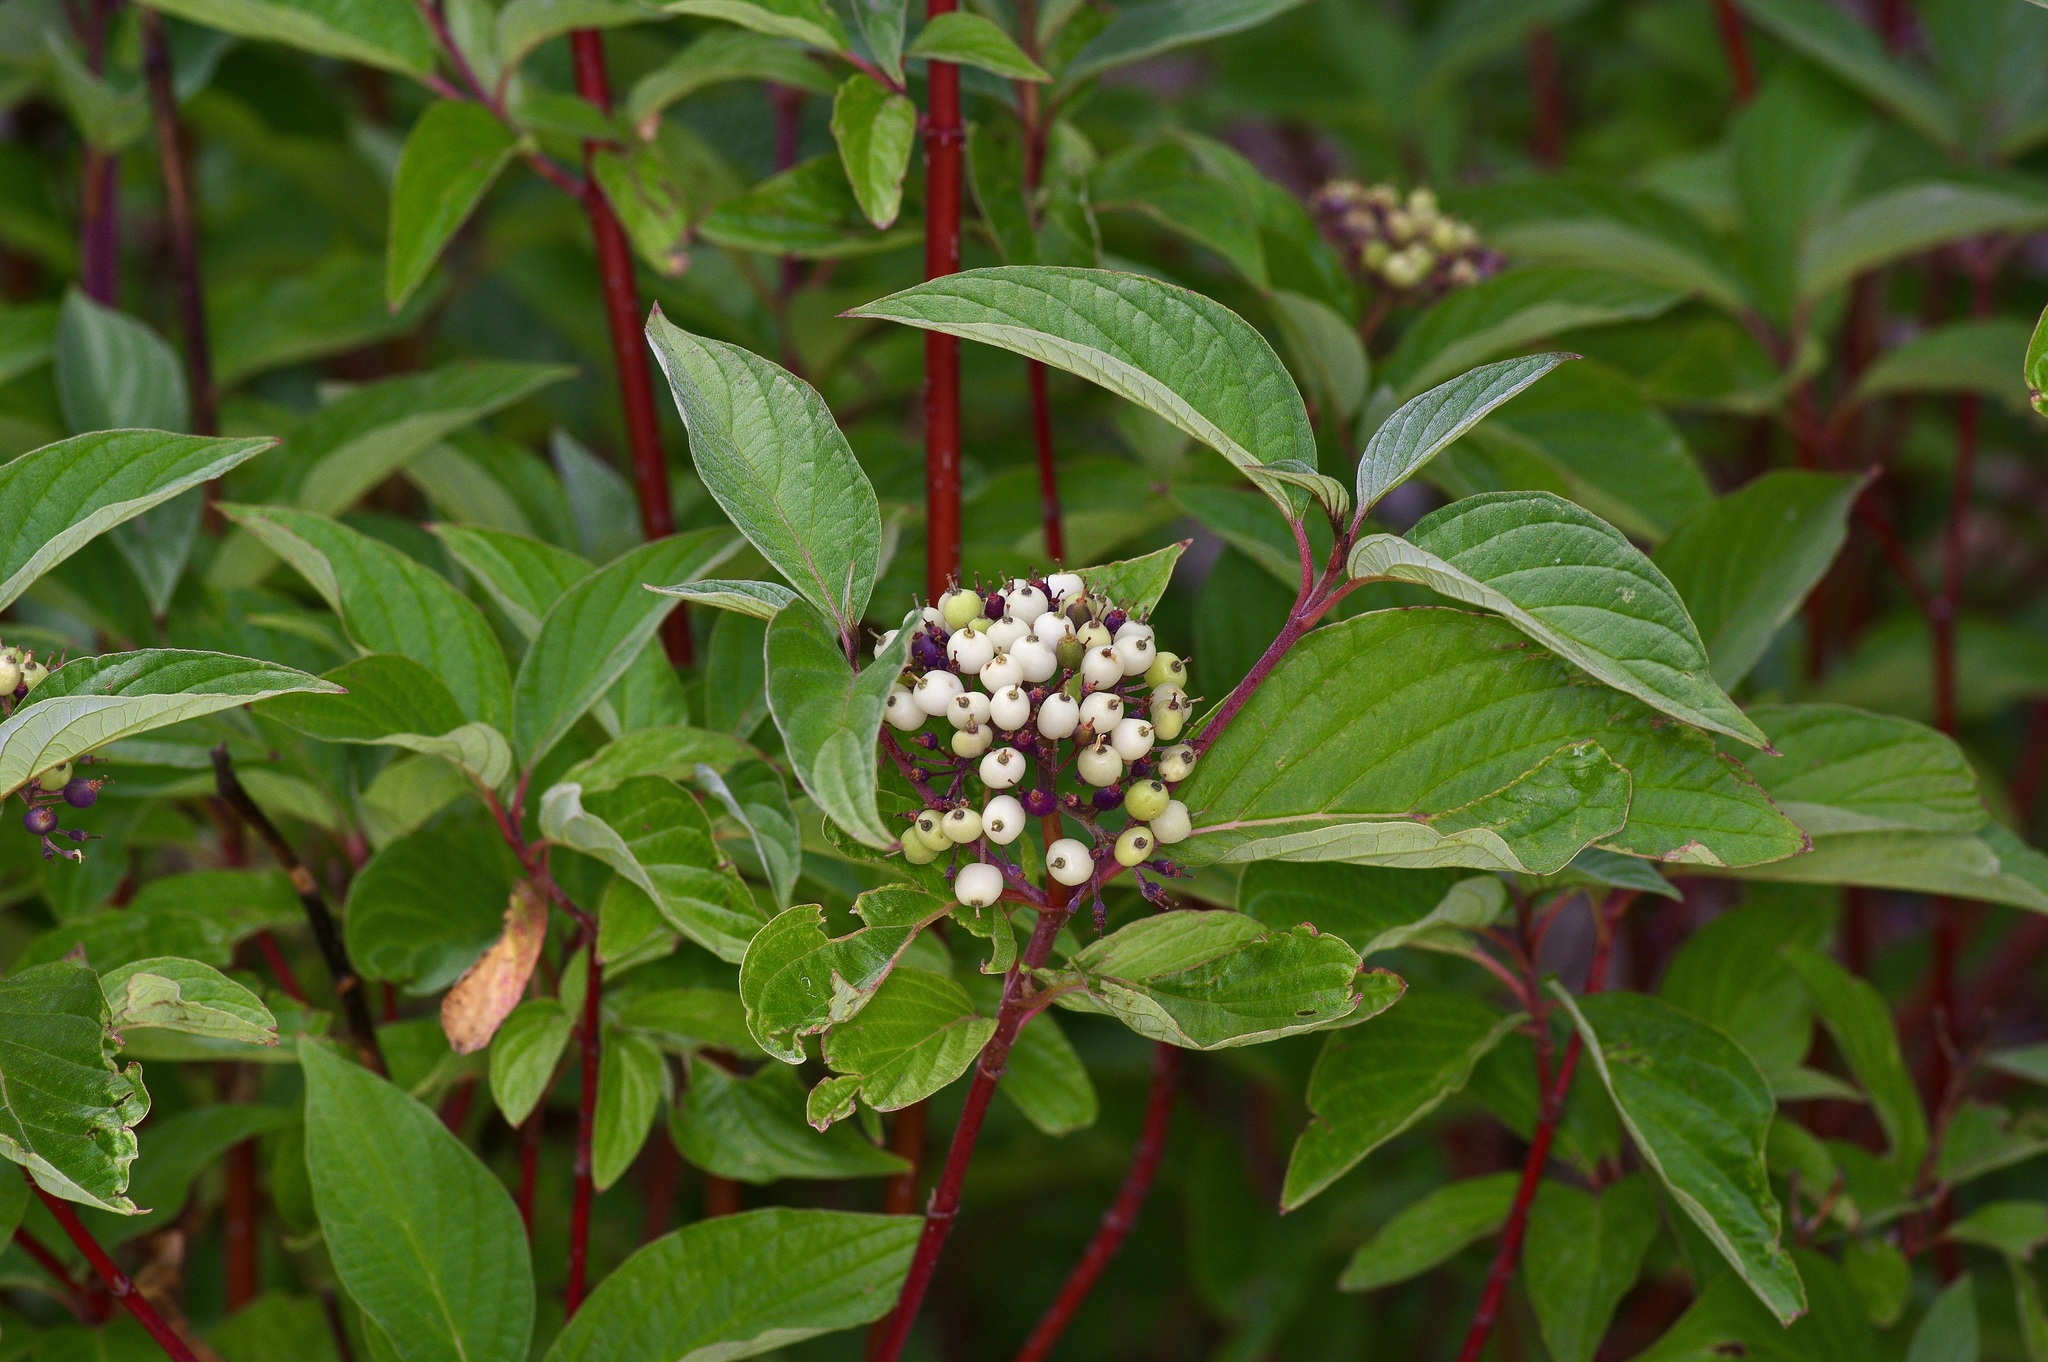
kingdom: Plantae
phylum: Tracheophyta
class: Magnoliopsida
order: Cornales
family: Cornaceae
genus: Cornus
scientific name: Cornus sericea
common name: Red-osier dogwood
